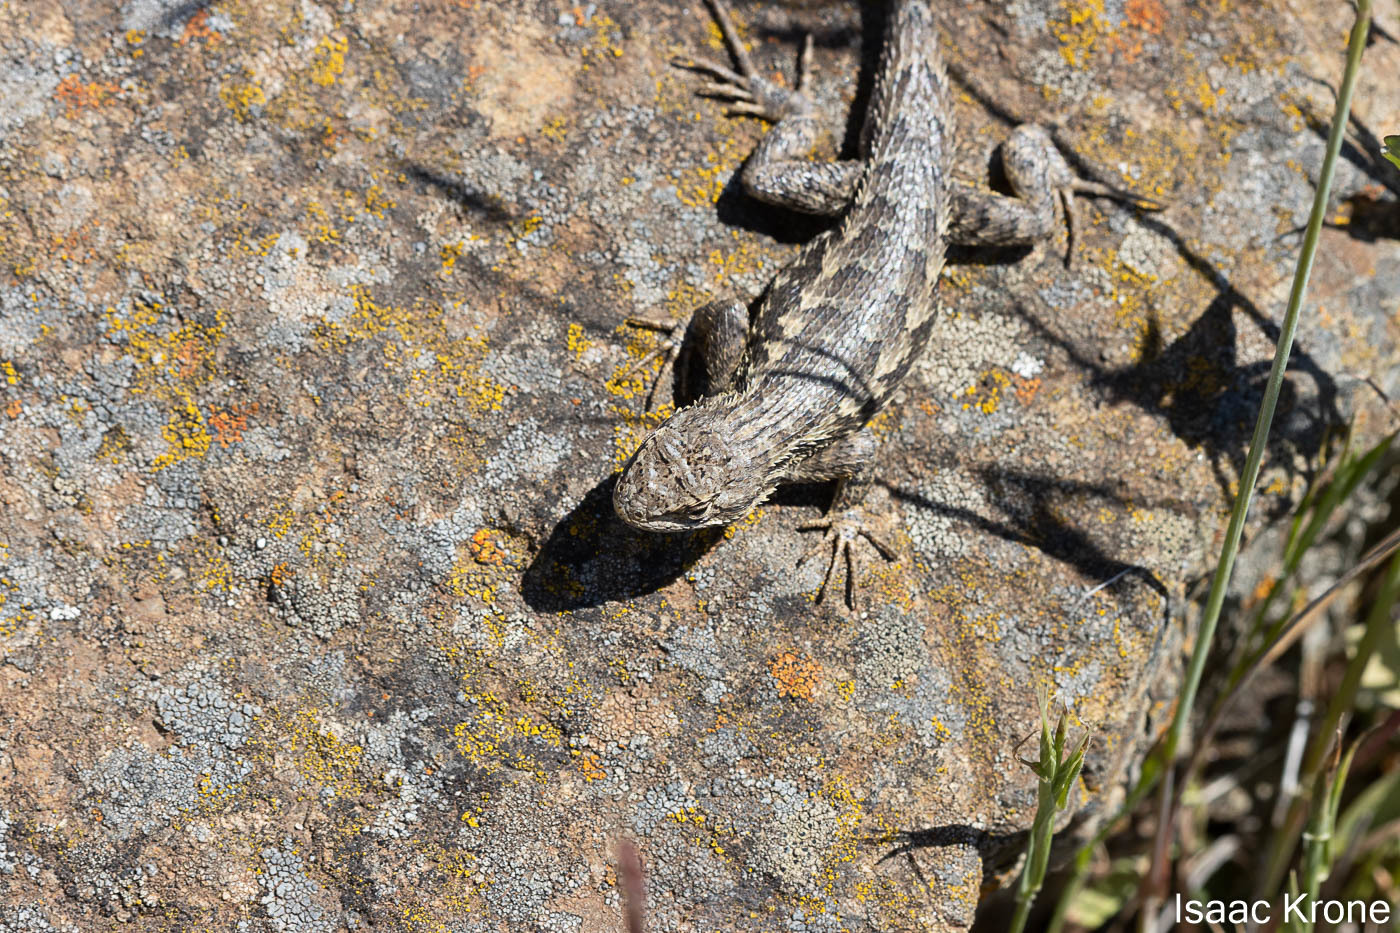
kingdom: Animalia
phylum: Chordata
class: Squamata
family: Phrynosomatidae
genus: Sceloporus
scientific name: Sceloporus occidentalis
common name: Western fence lizard
